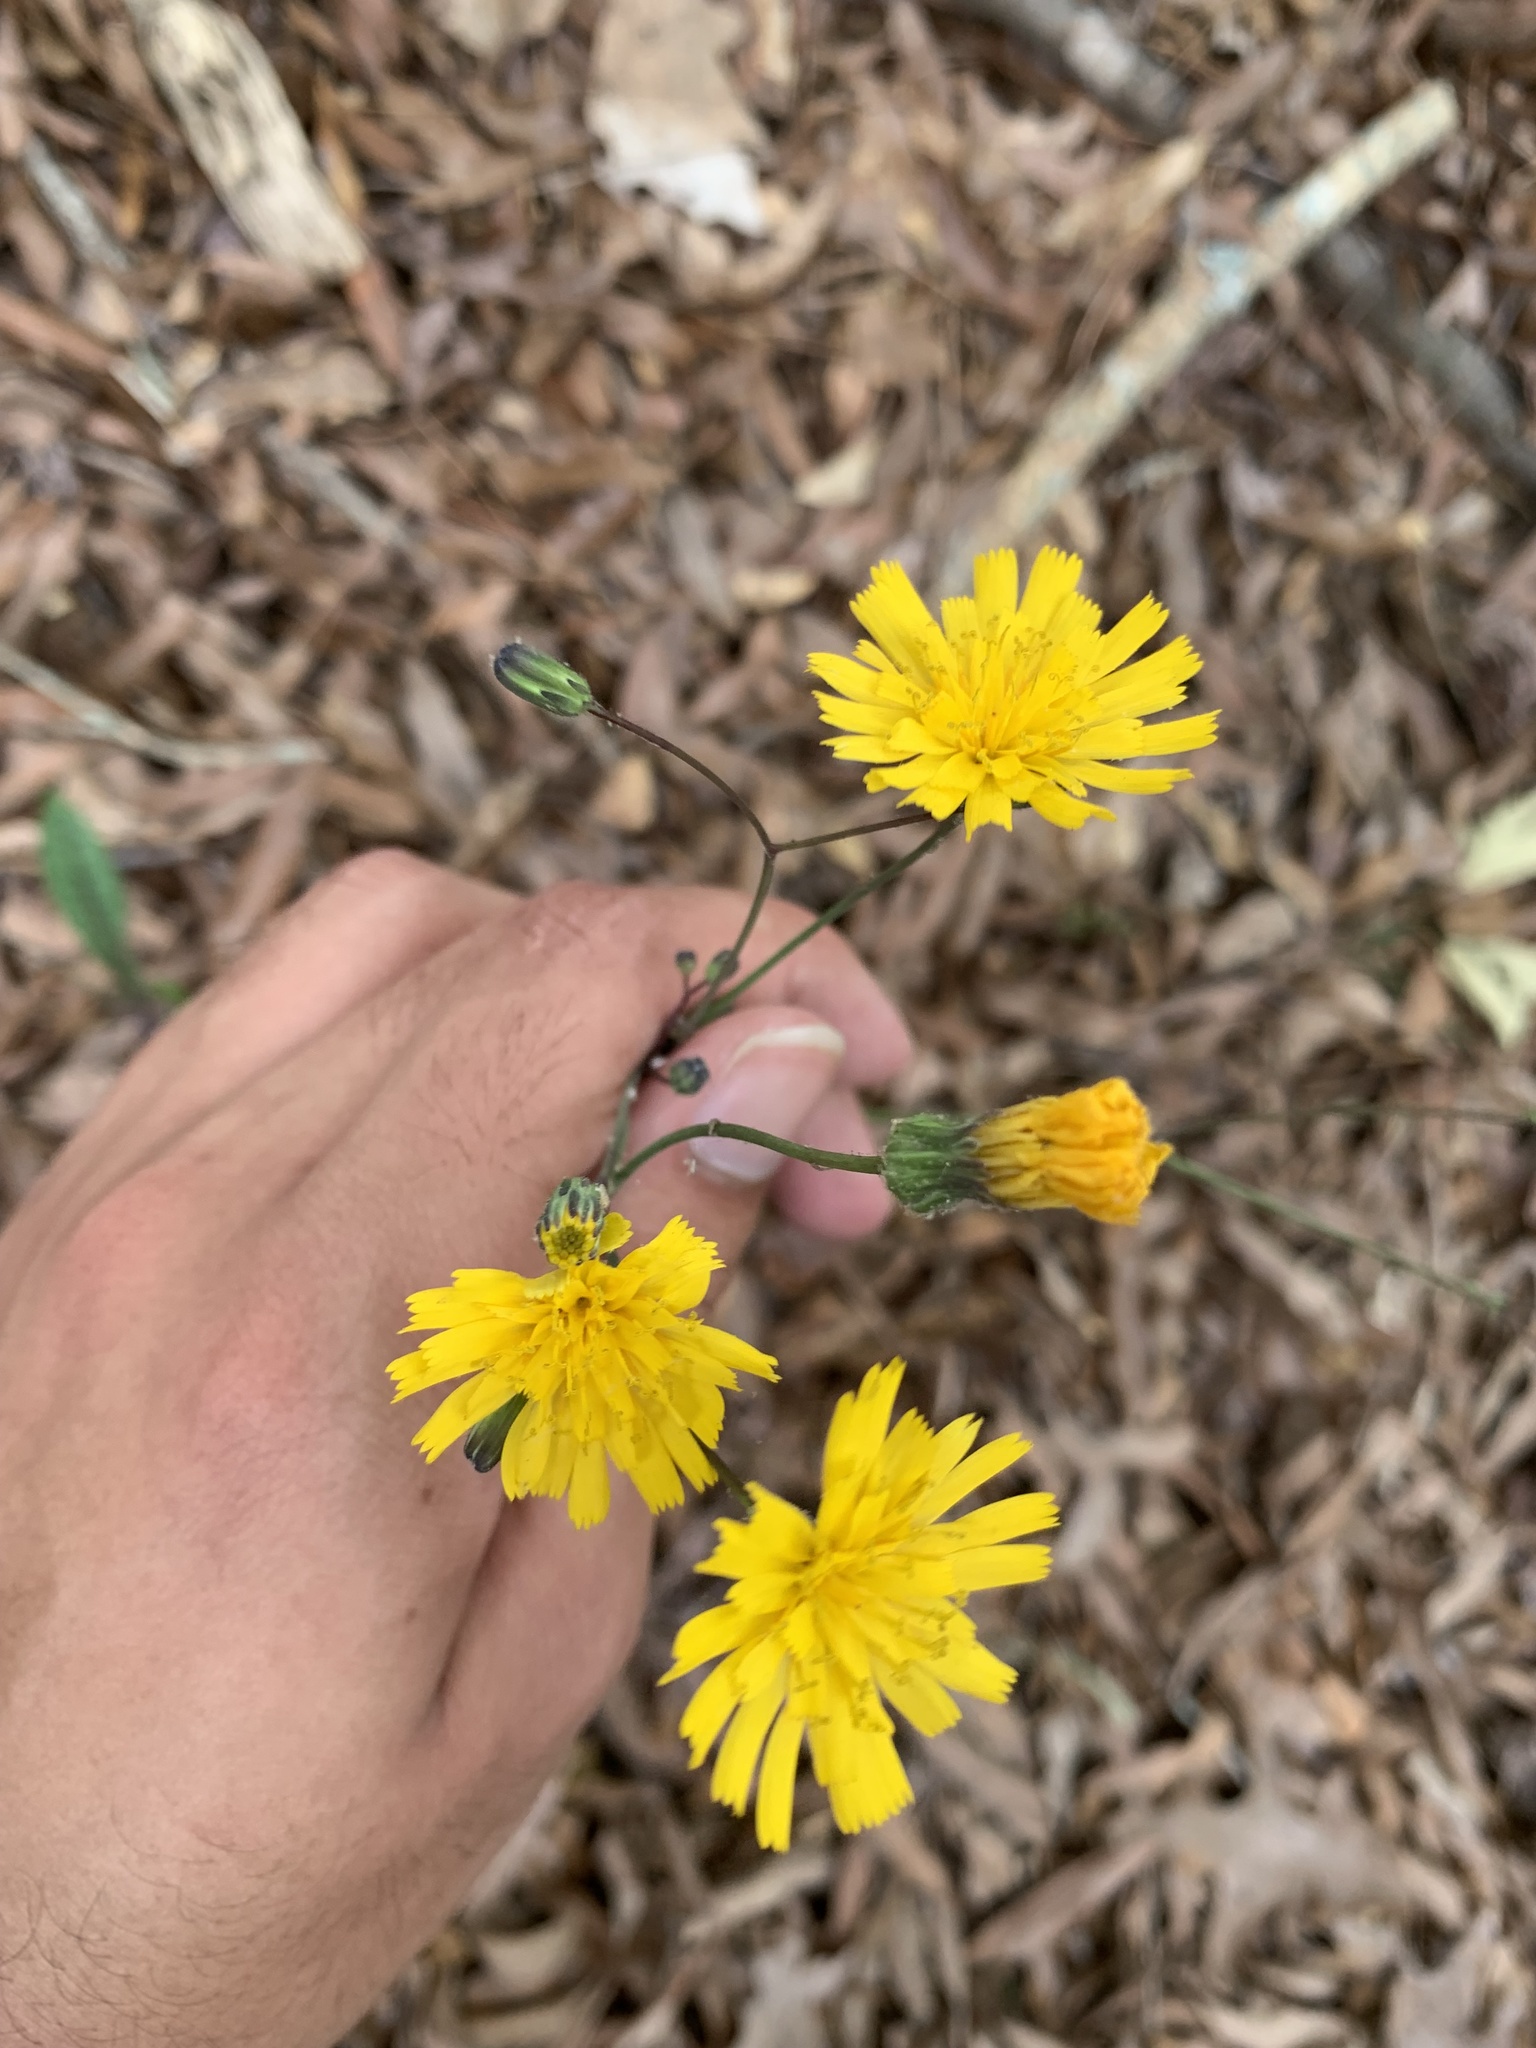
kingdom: Plantae
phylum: Tracheophyta
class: Magnoliopsida
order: Asterales
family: Asteraceae
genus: Hieracium
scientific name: Hieracium venosum
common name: Rattlesnake hawkweed
